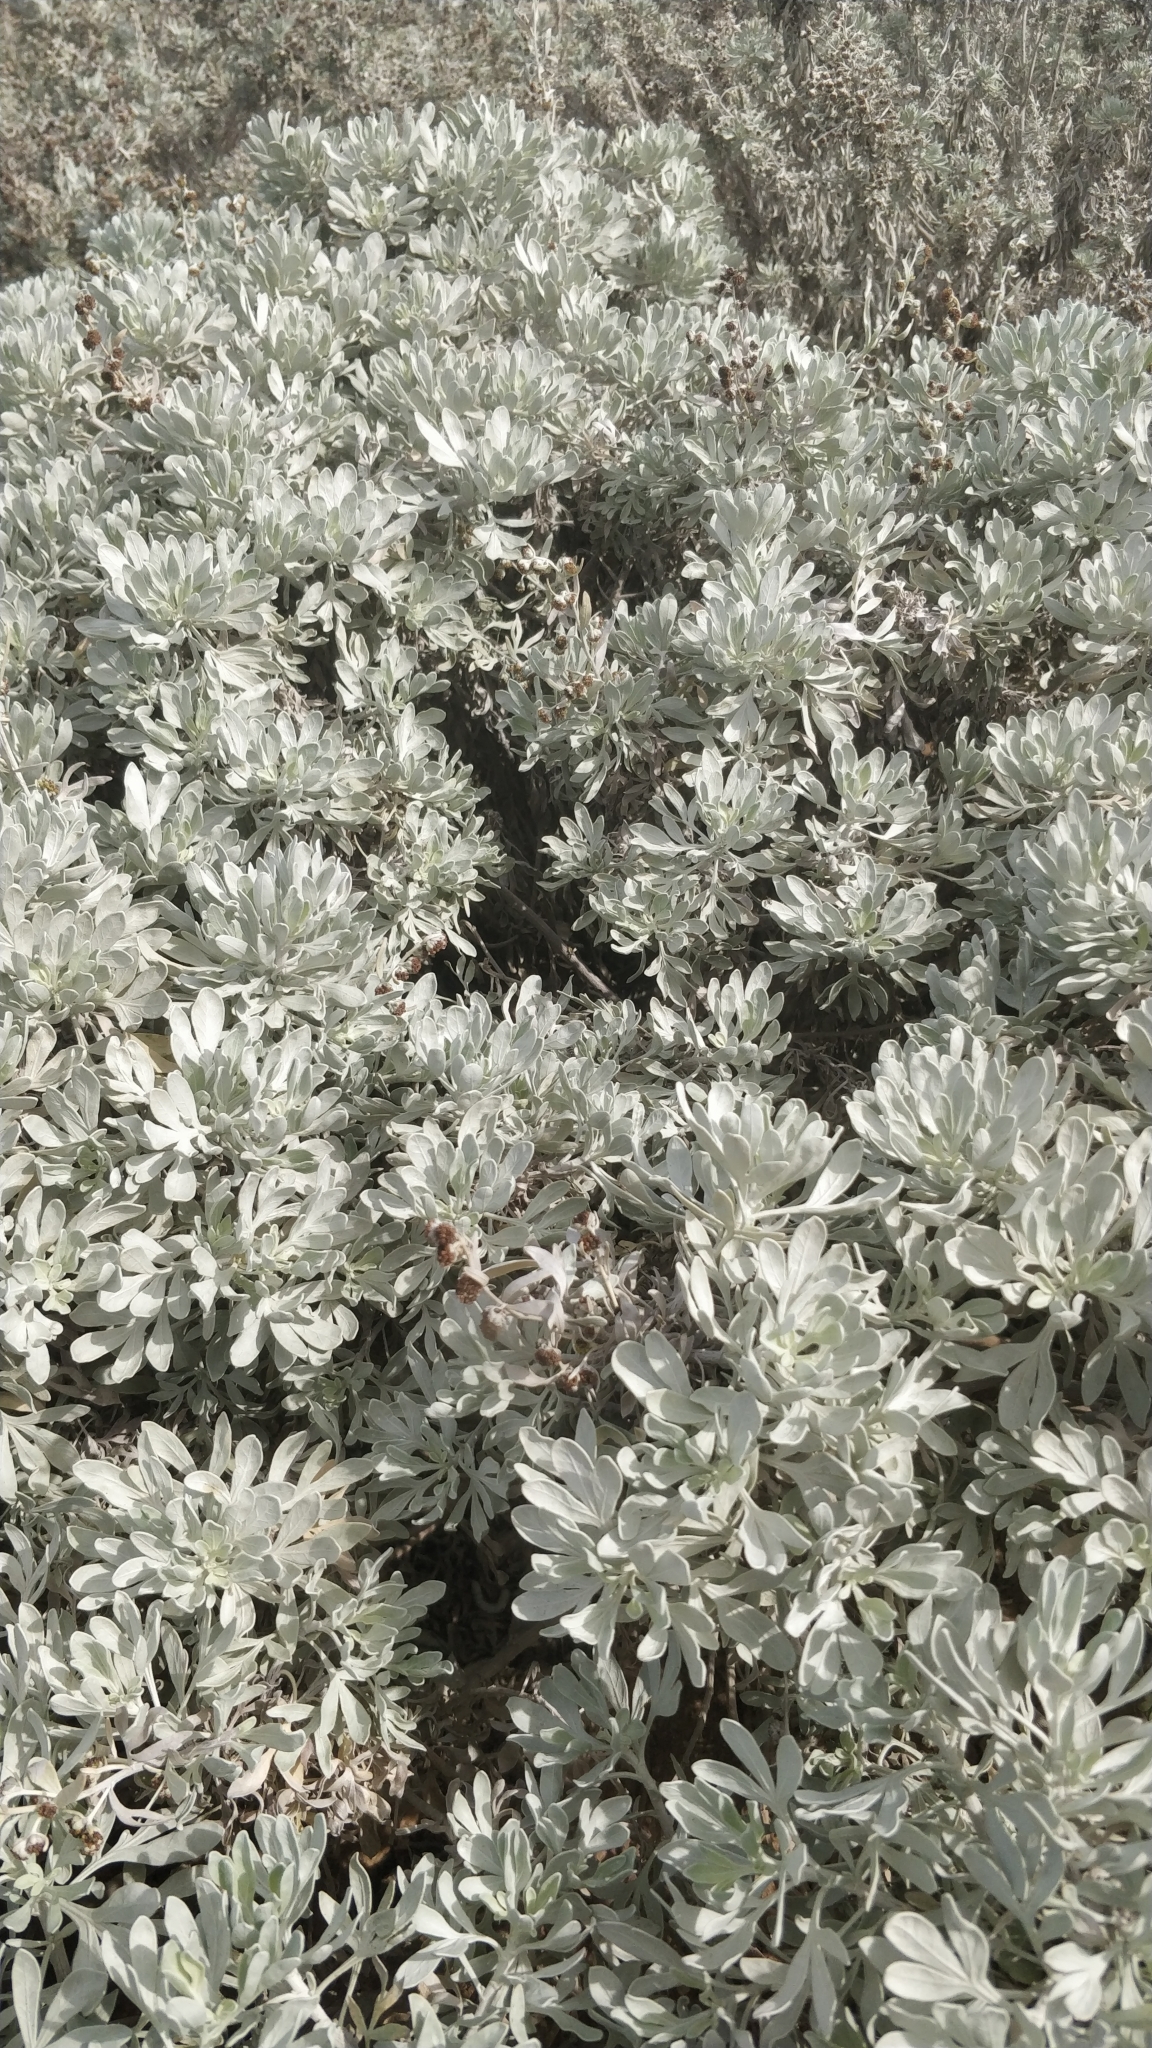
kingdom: Plantae
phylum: Tracheophyta
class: Magnoliopsida
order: Asterales
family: Asteraceae
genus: Artemisia
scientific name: Artemisia argentea
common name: Madeira wormwood
